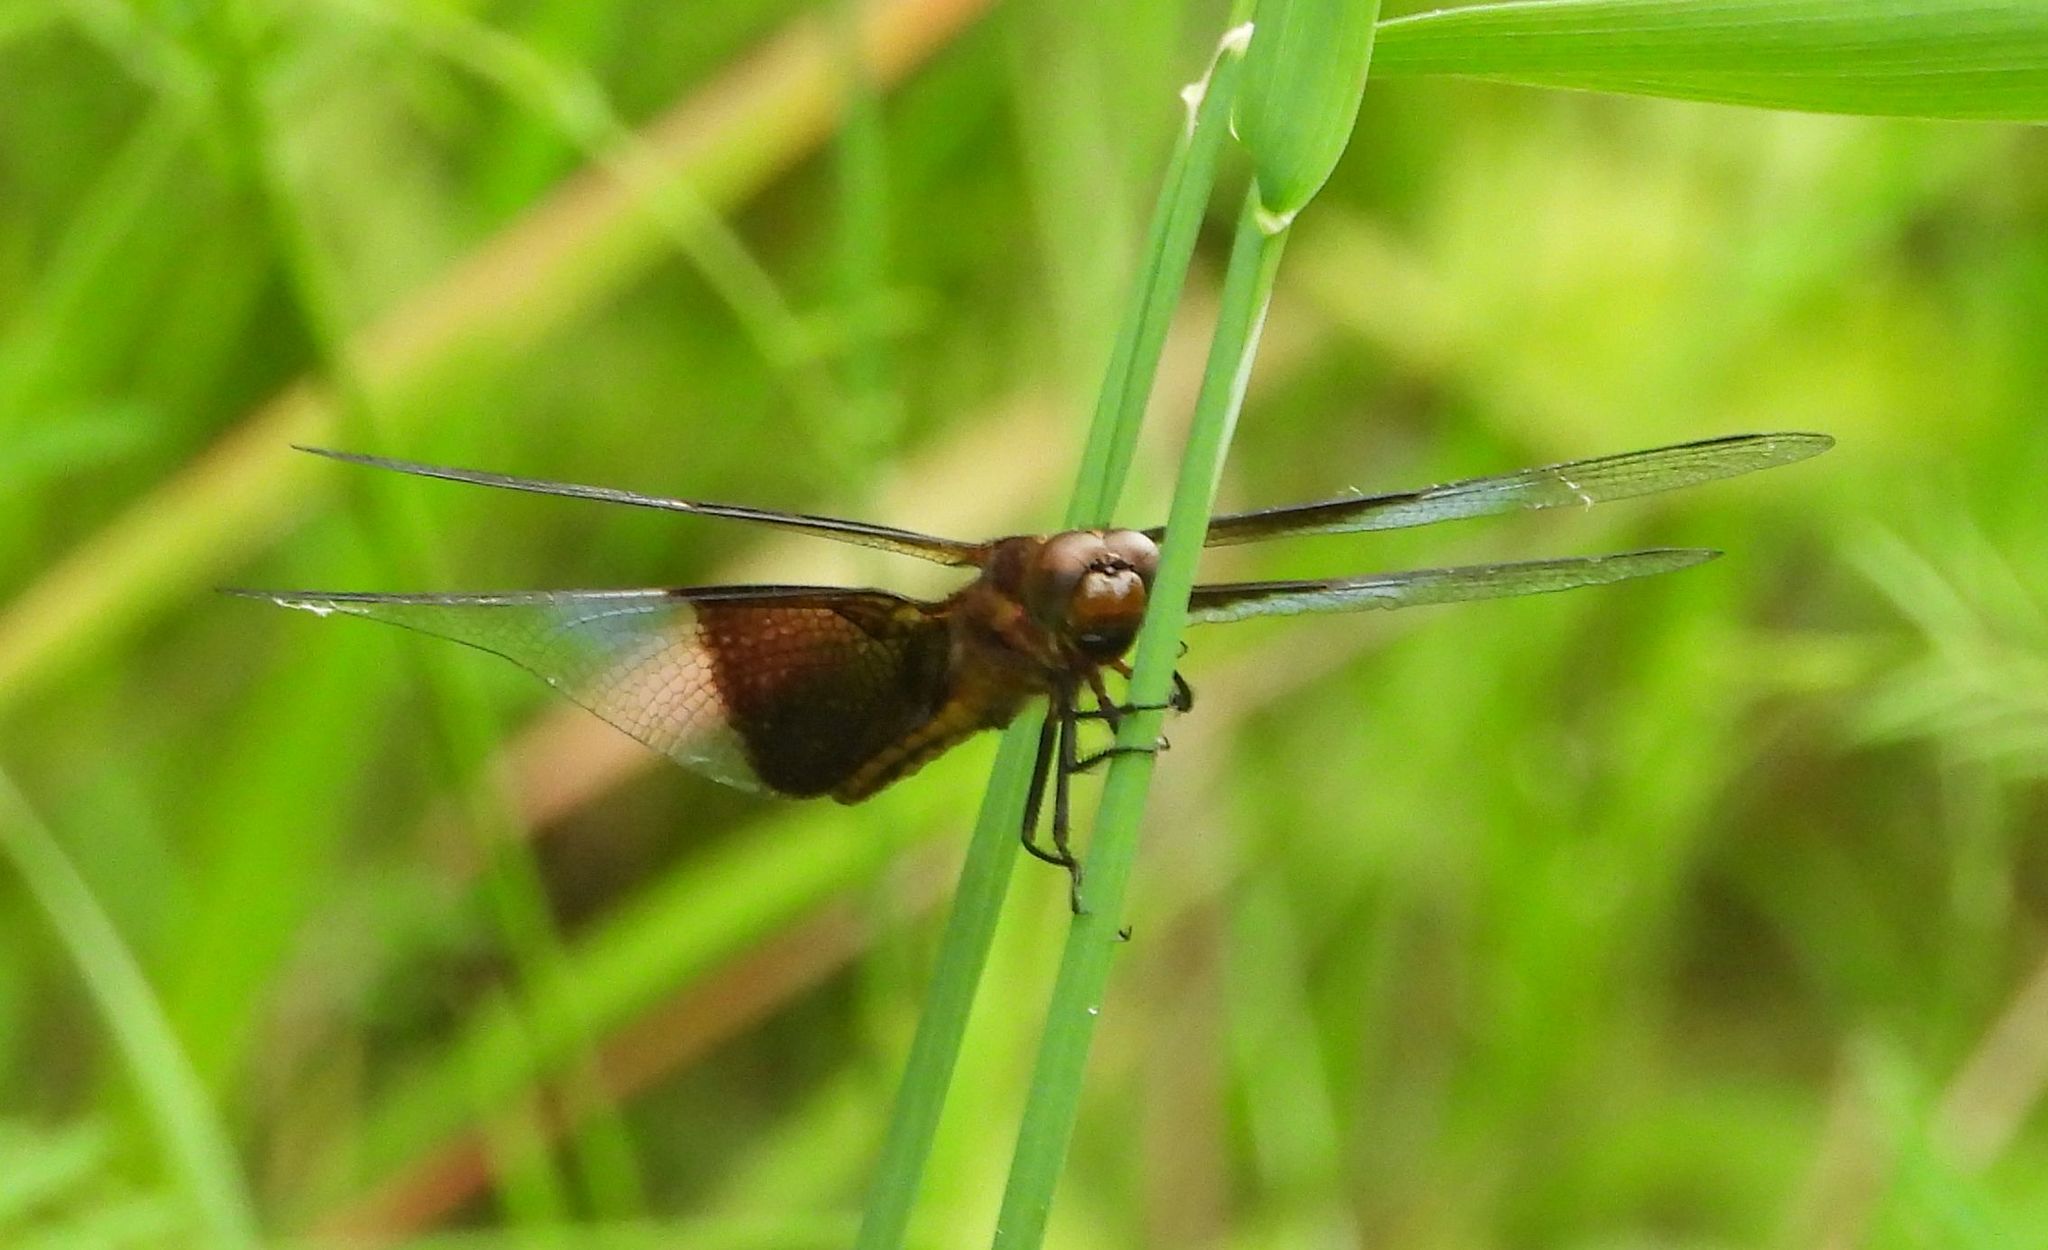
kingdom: Animalia
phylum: Arthropoda
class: Insecta
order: Odonata
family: Libellulidae
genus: Libellula
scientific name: Libellula luctuosa
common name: Widow skimmer
